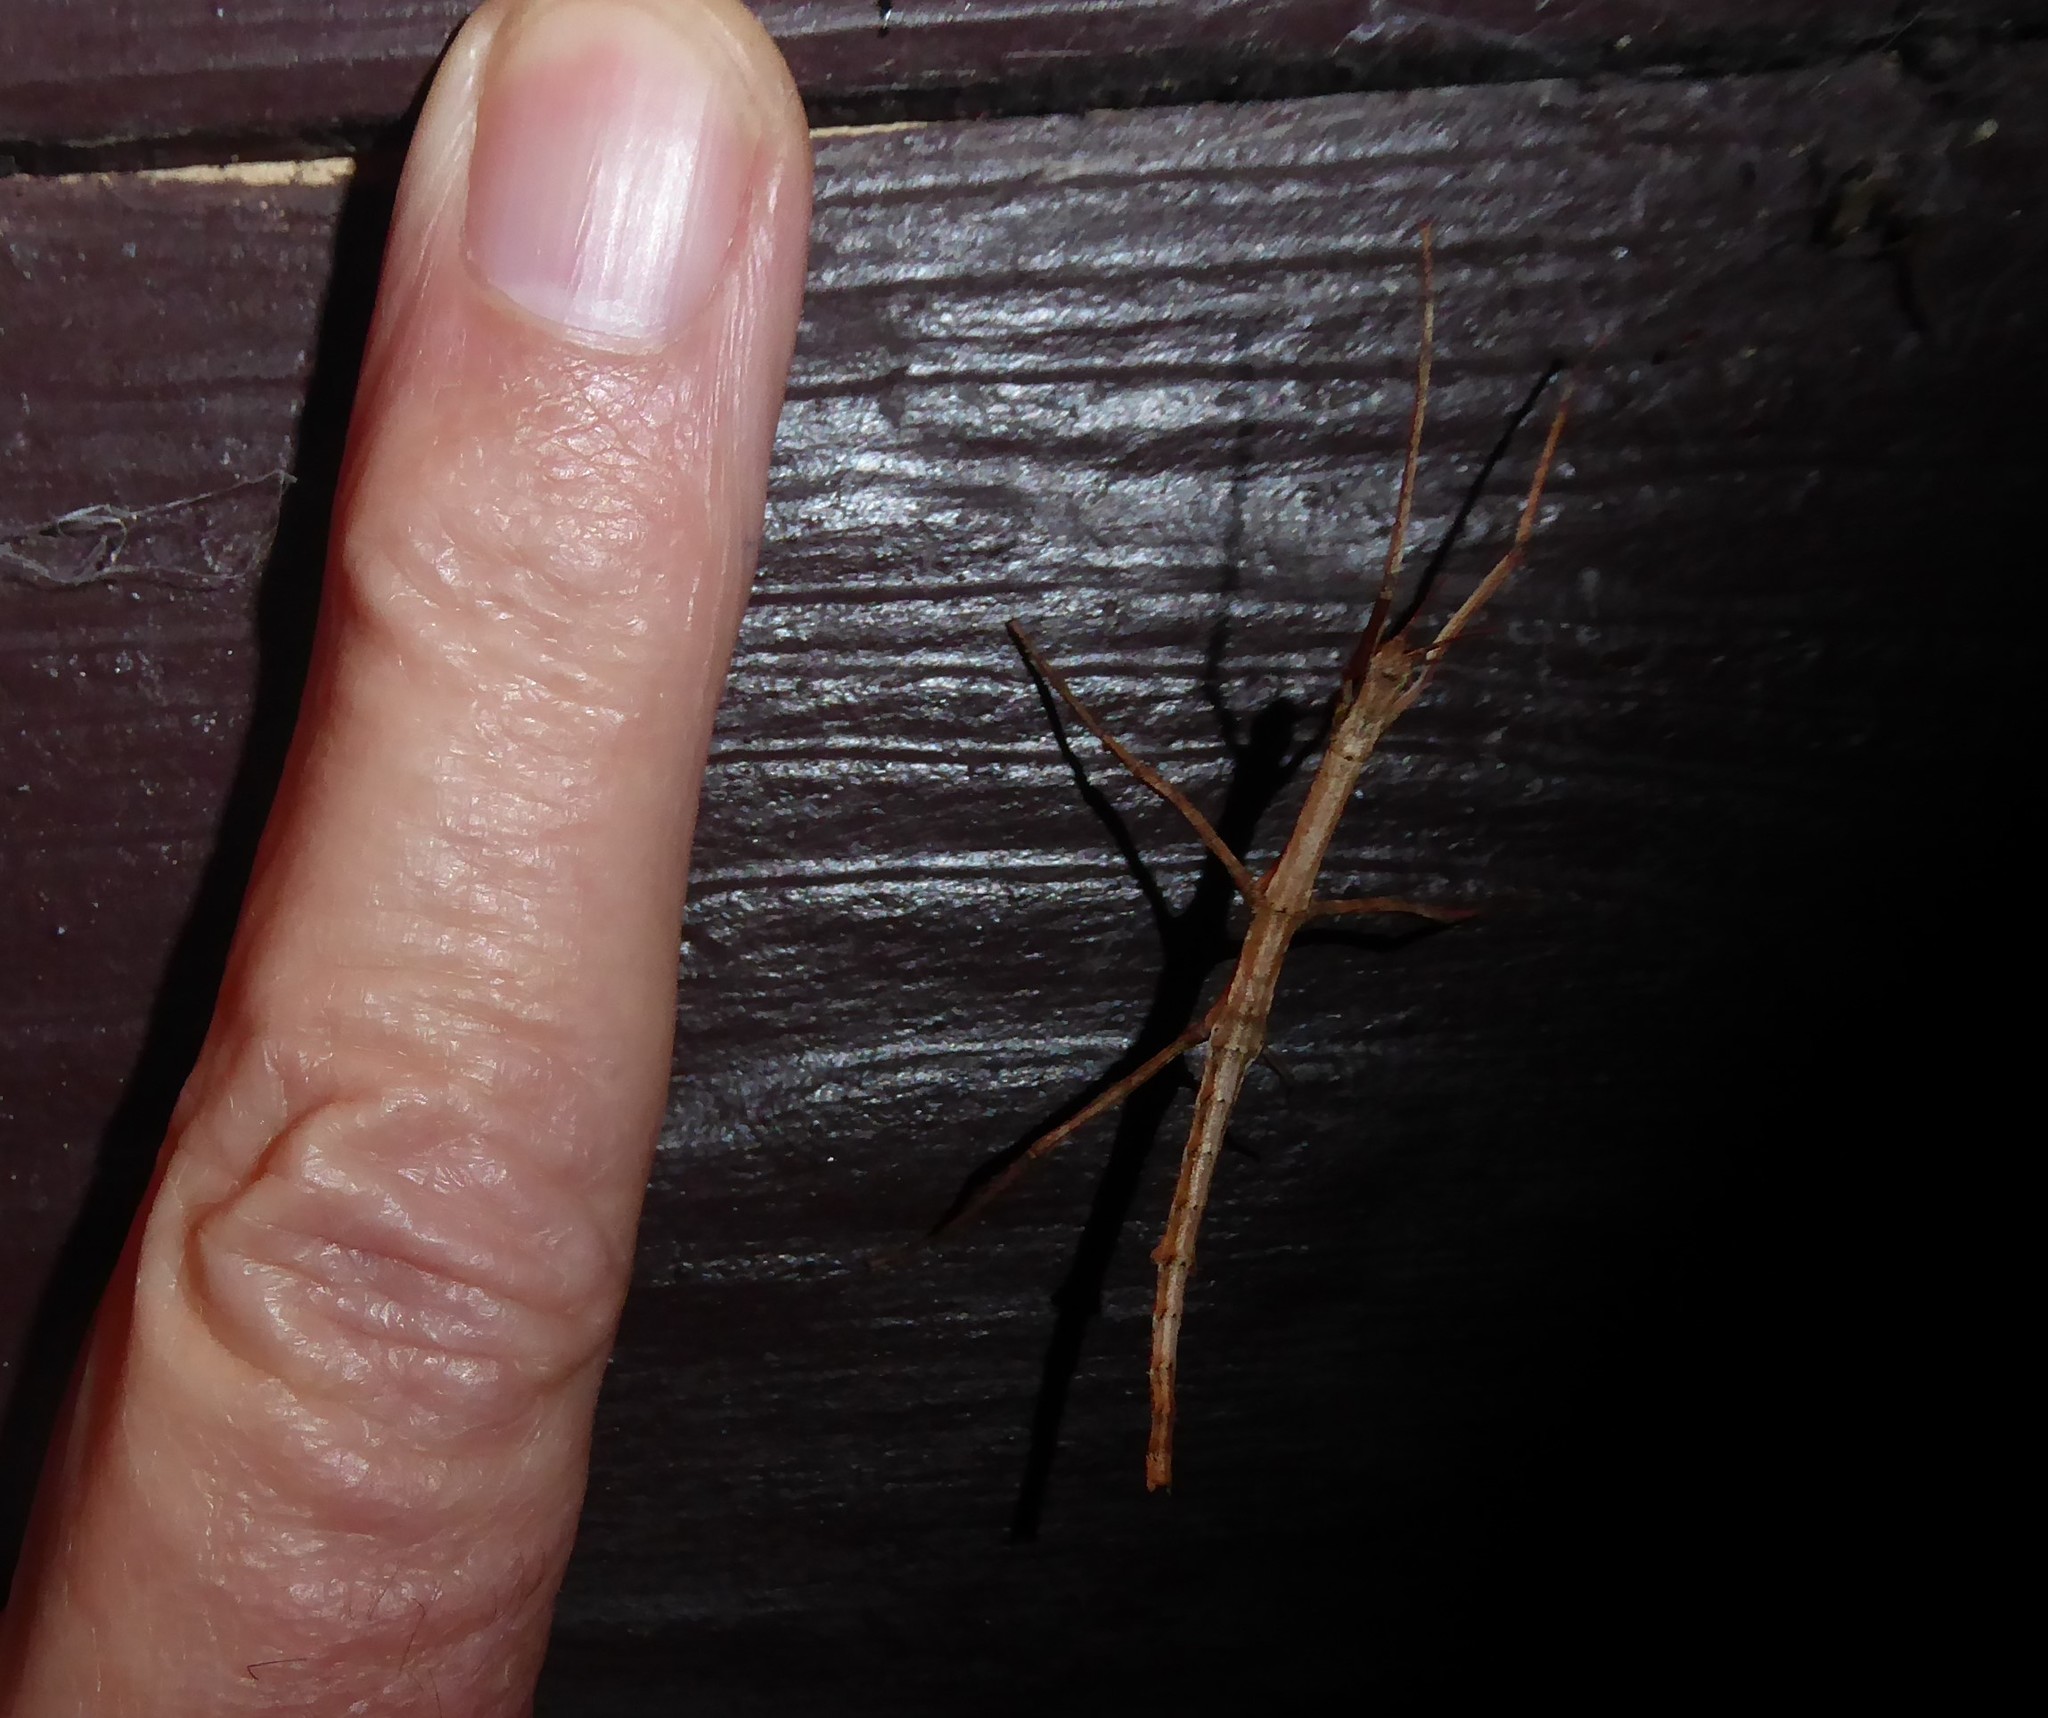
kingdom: Animalia
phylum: Arthropoda
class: Insecta
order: Phasmida
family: Phasmatidae
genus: Niveaphasma
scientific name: Niveaphasma annulatum
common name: Hutton's stick insect
